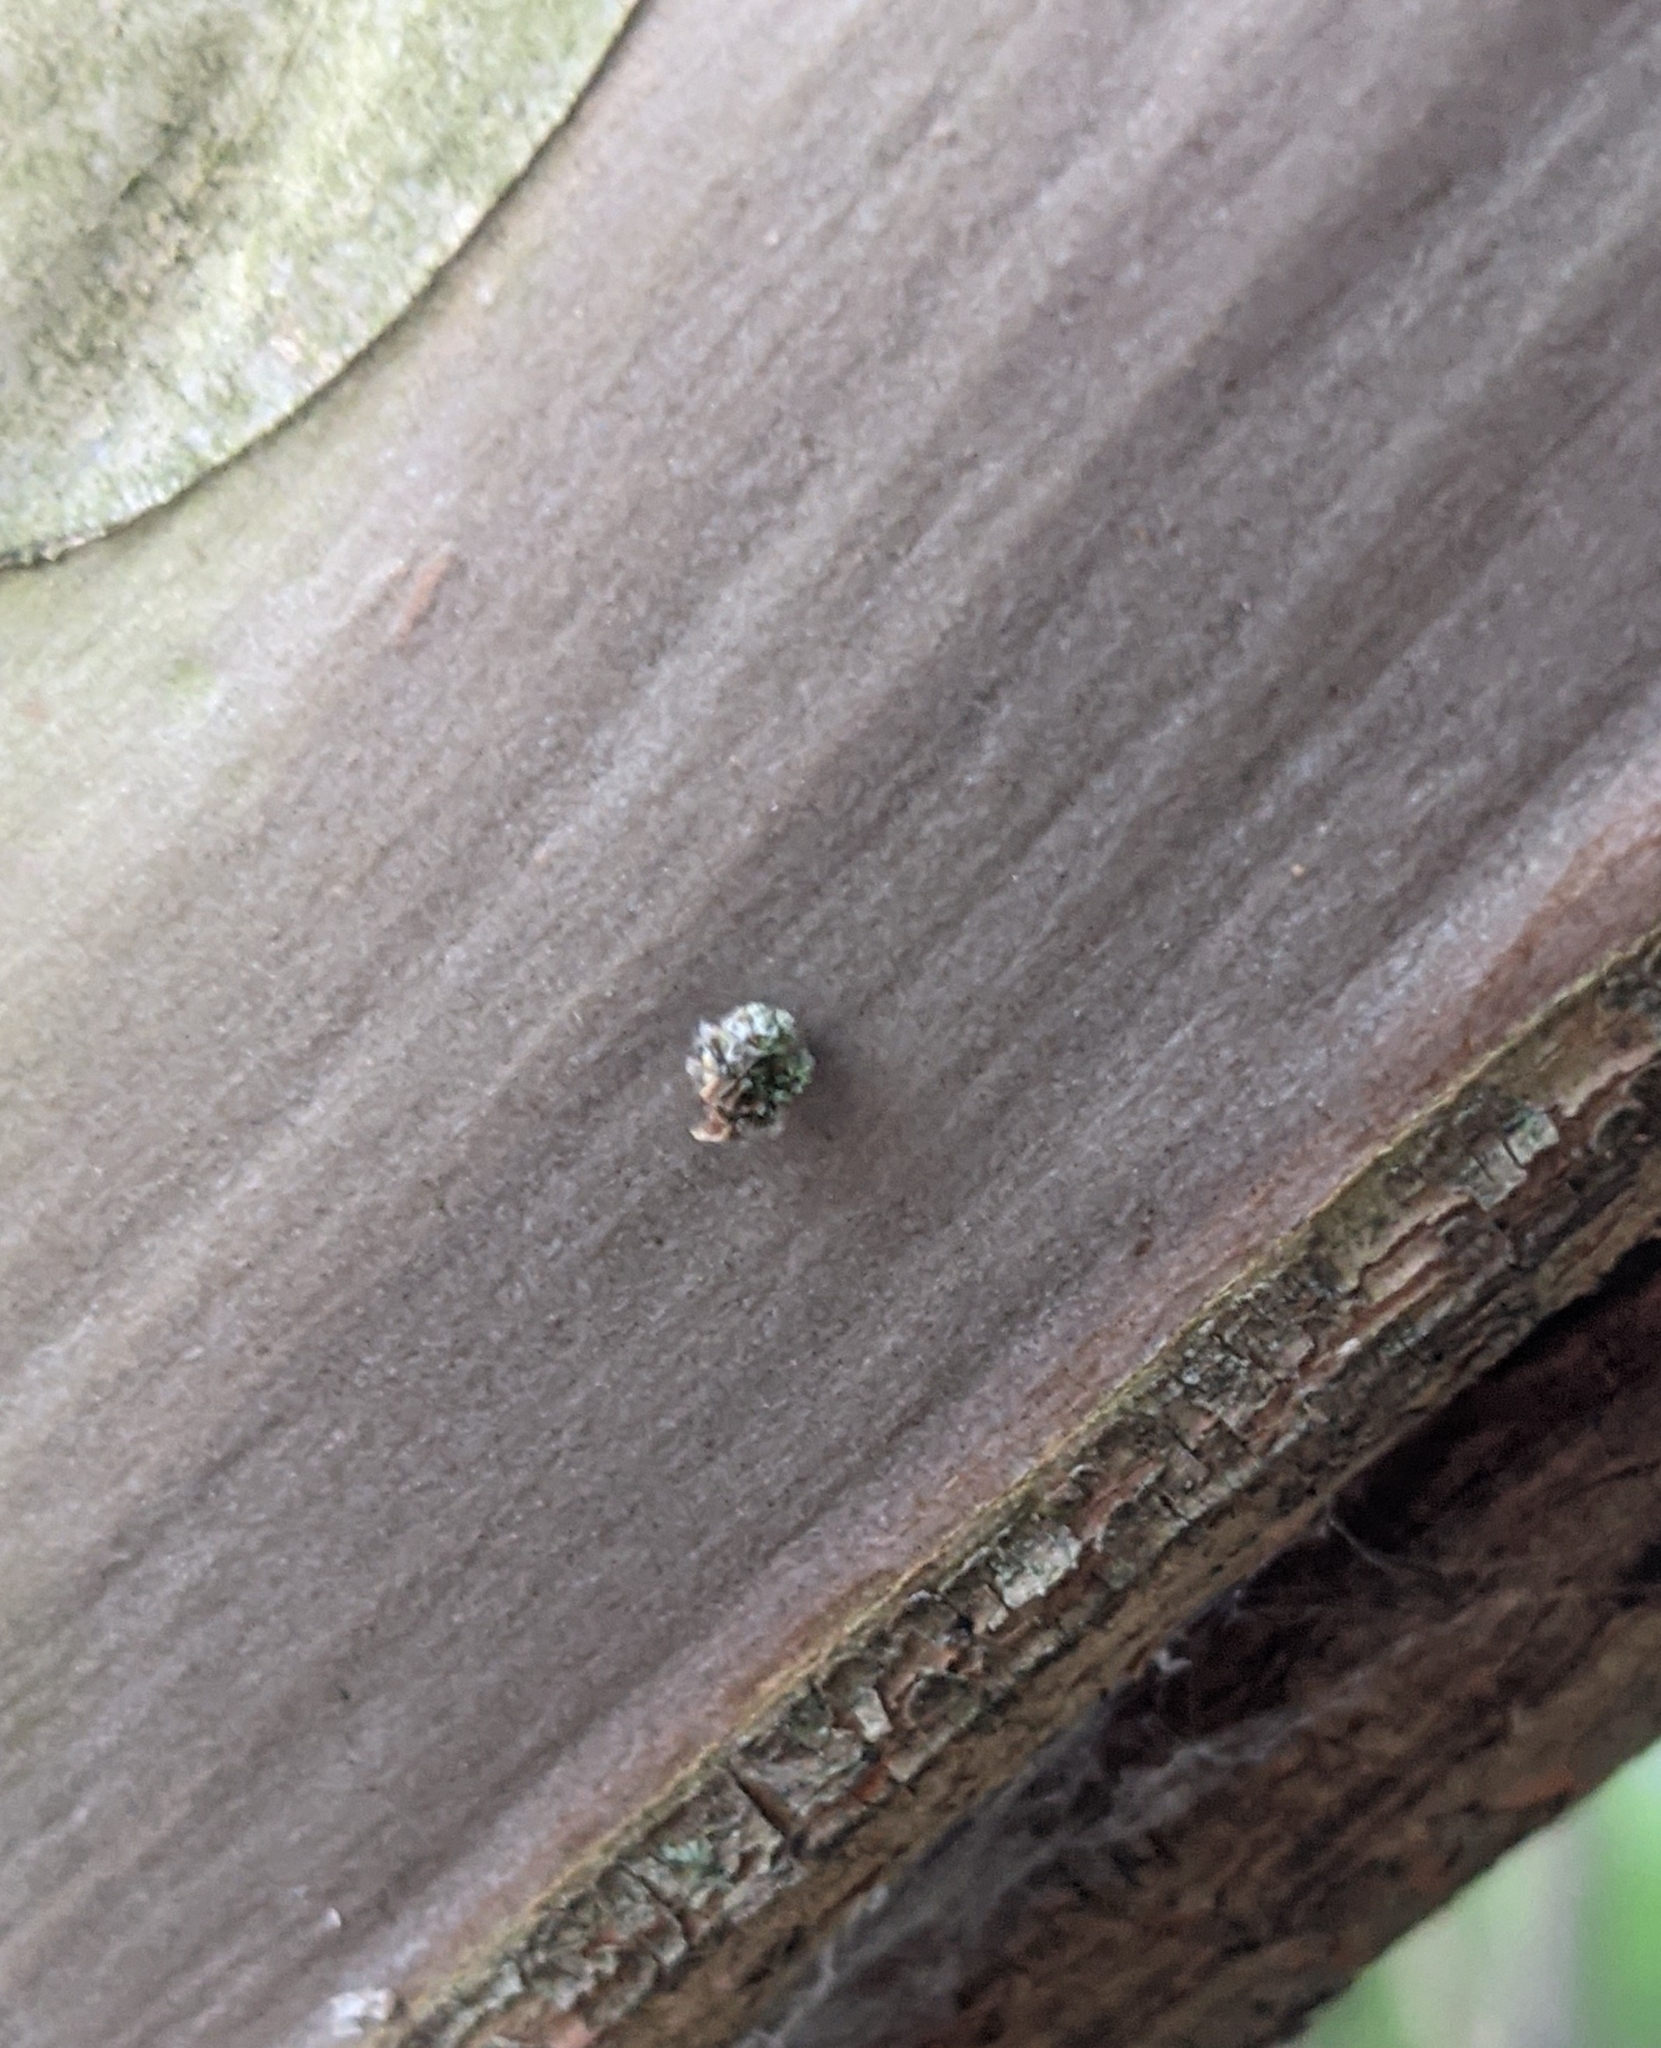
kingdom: Animalia
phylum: Arthropoda
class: Insecta
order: Neuroptera
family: Chrysopidae
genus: Leucochrysa
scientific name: Leucochrysa pavida
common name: Lichen-carrying green lacewing
